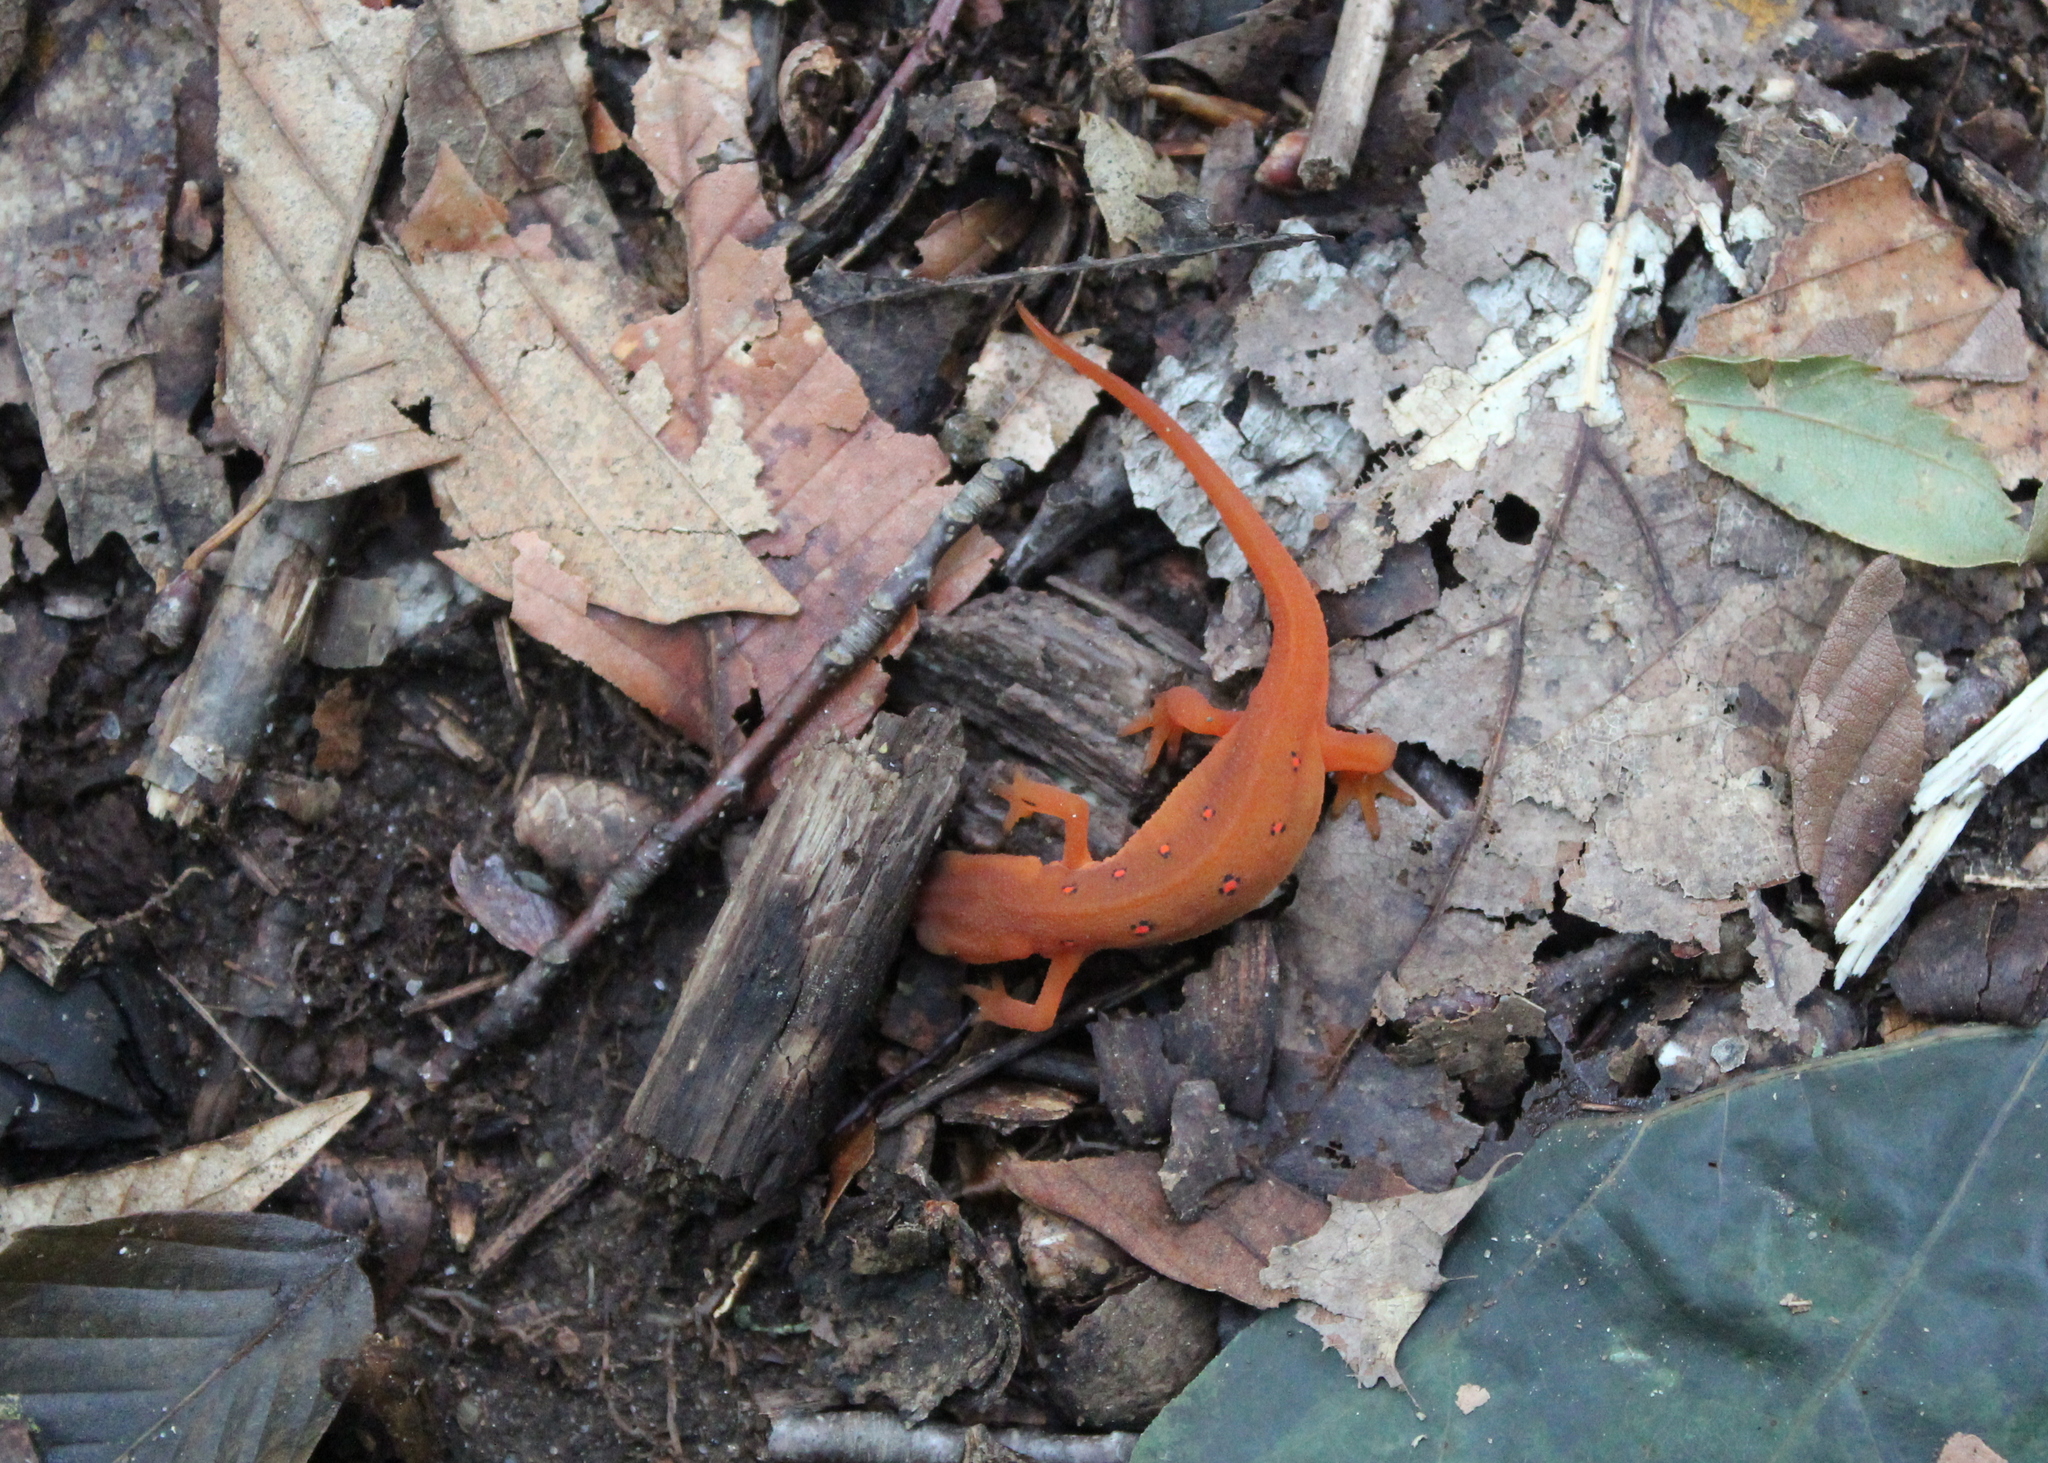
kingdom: Animalia
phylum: Chordata
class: Amphibia
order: Caudata
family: Salamandridae
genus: Notophthalmus
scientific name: Notophthalmus viridescens
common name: Eastern newt
